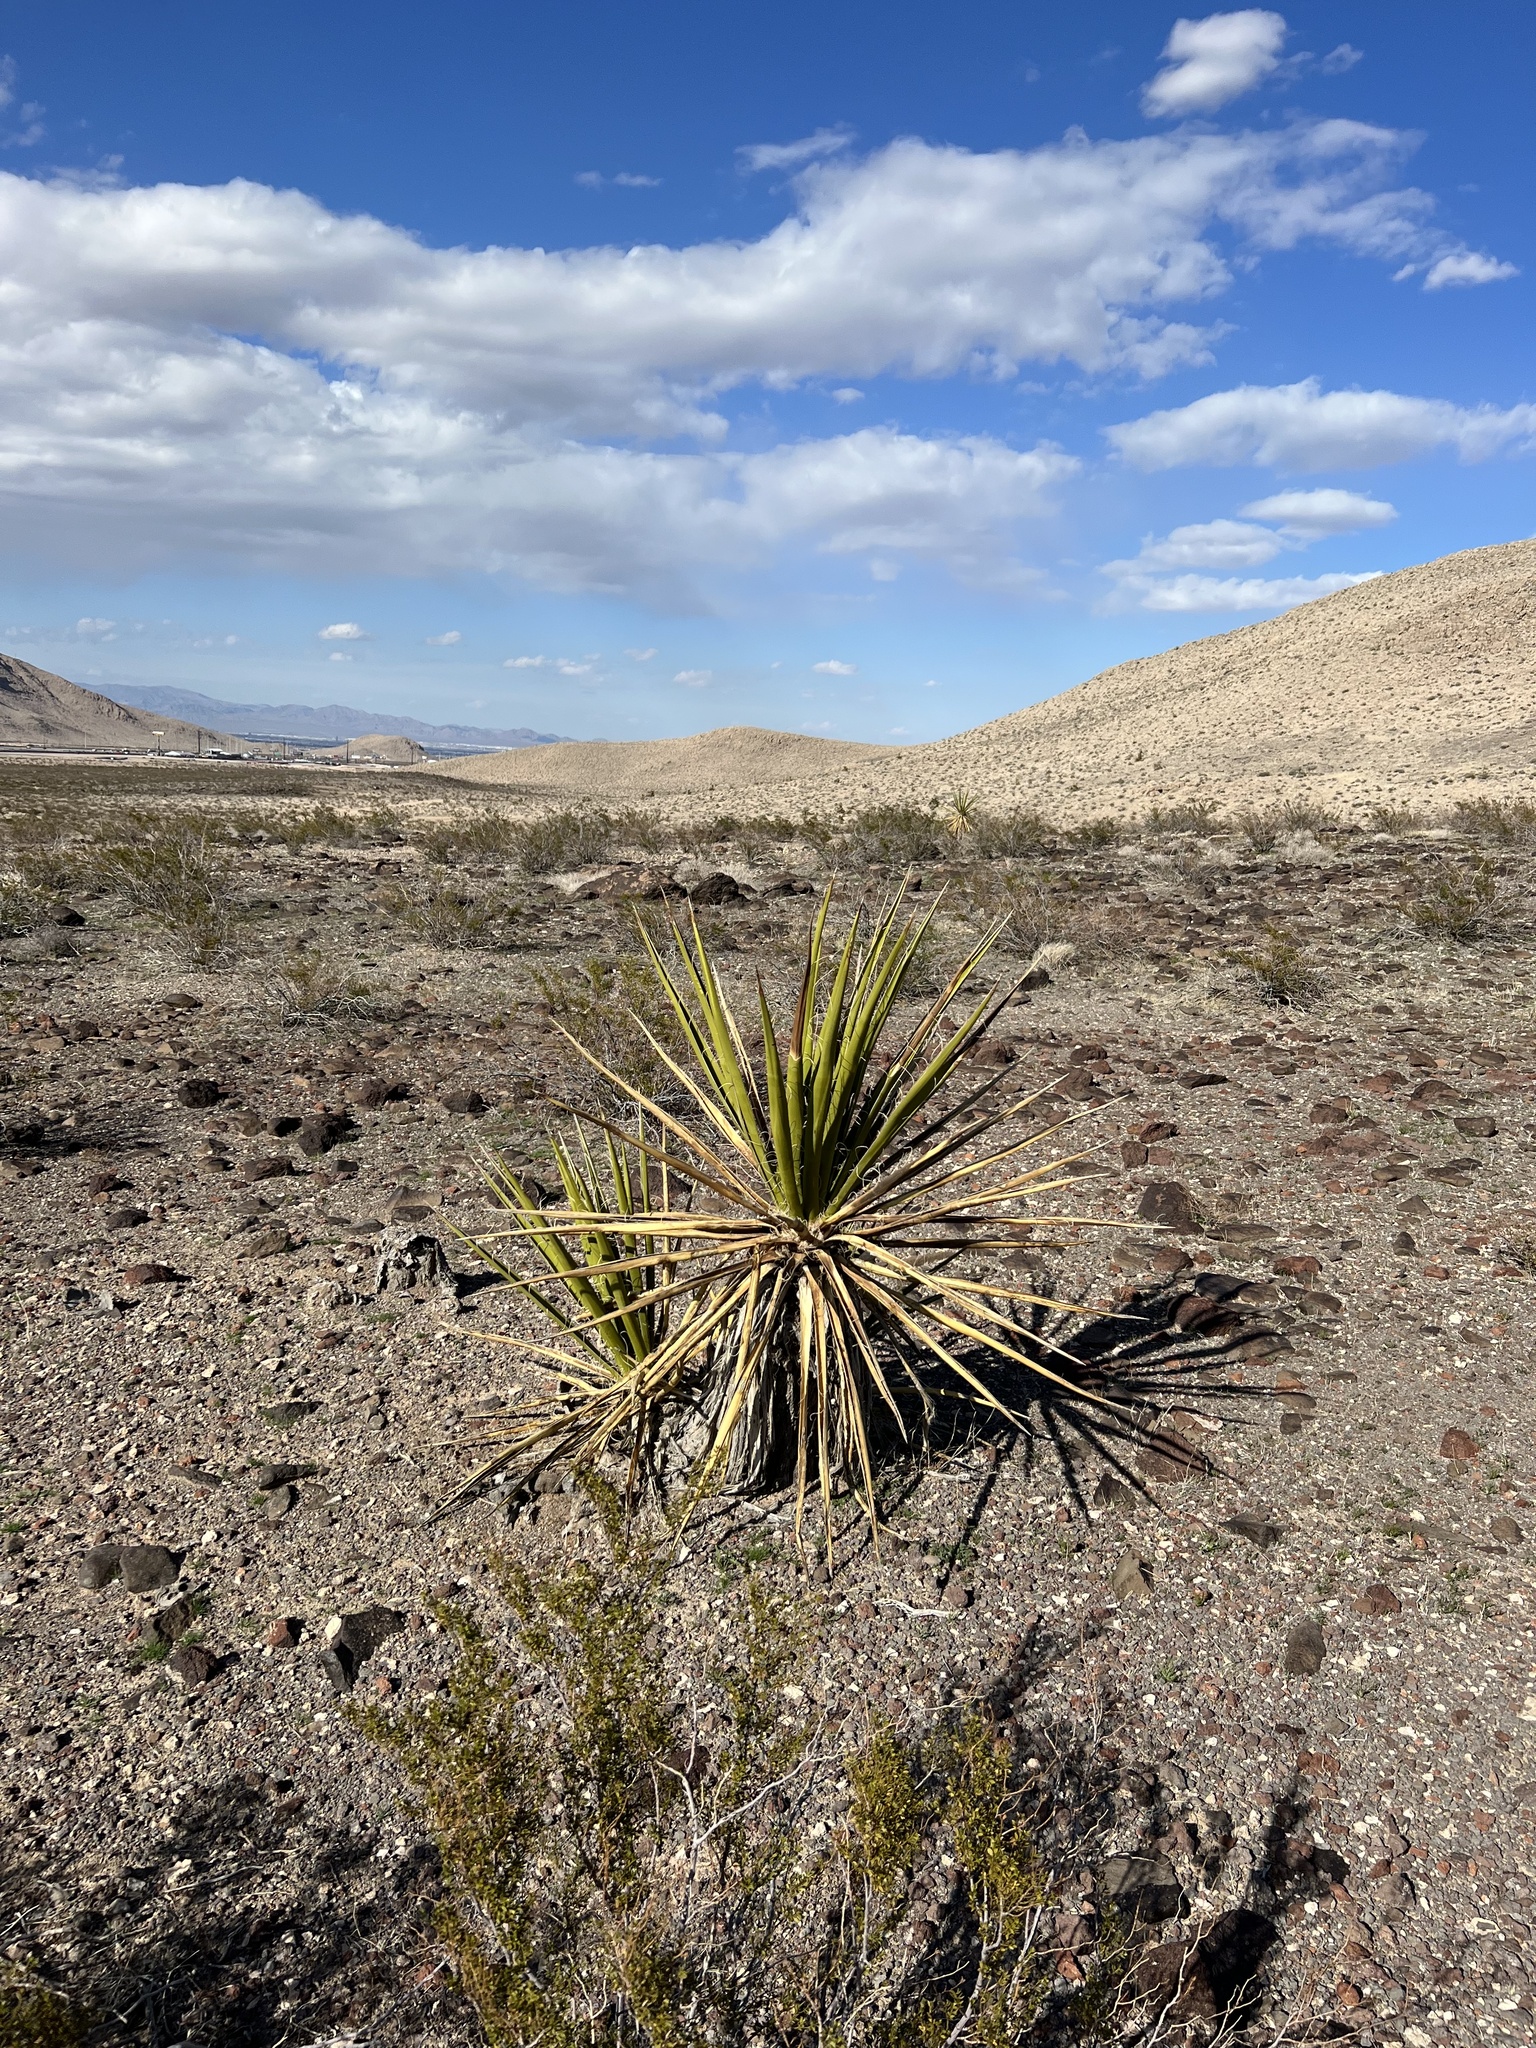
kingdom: Plantae
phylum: Tracheophyta
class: Liliopsida
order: Asparagales
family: Asparagaceae
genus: Yucca
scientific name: Yucca schidigera
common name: Mojave yucca
